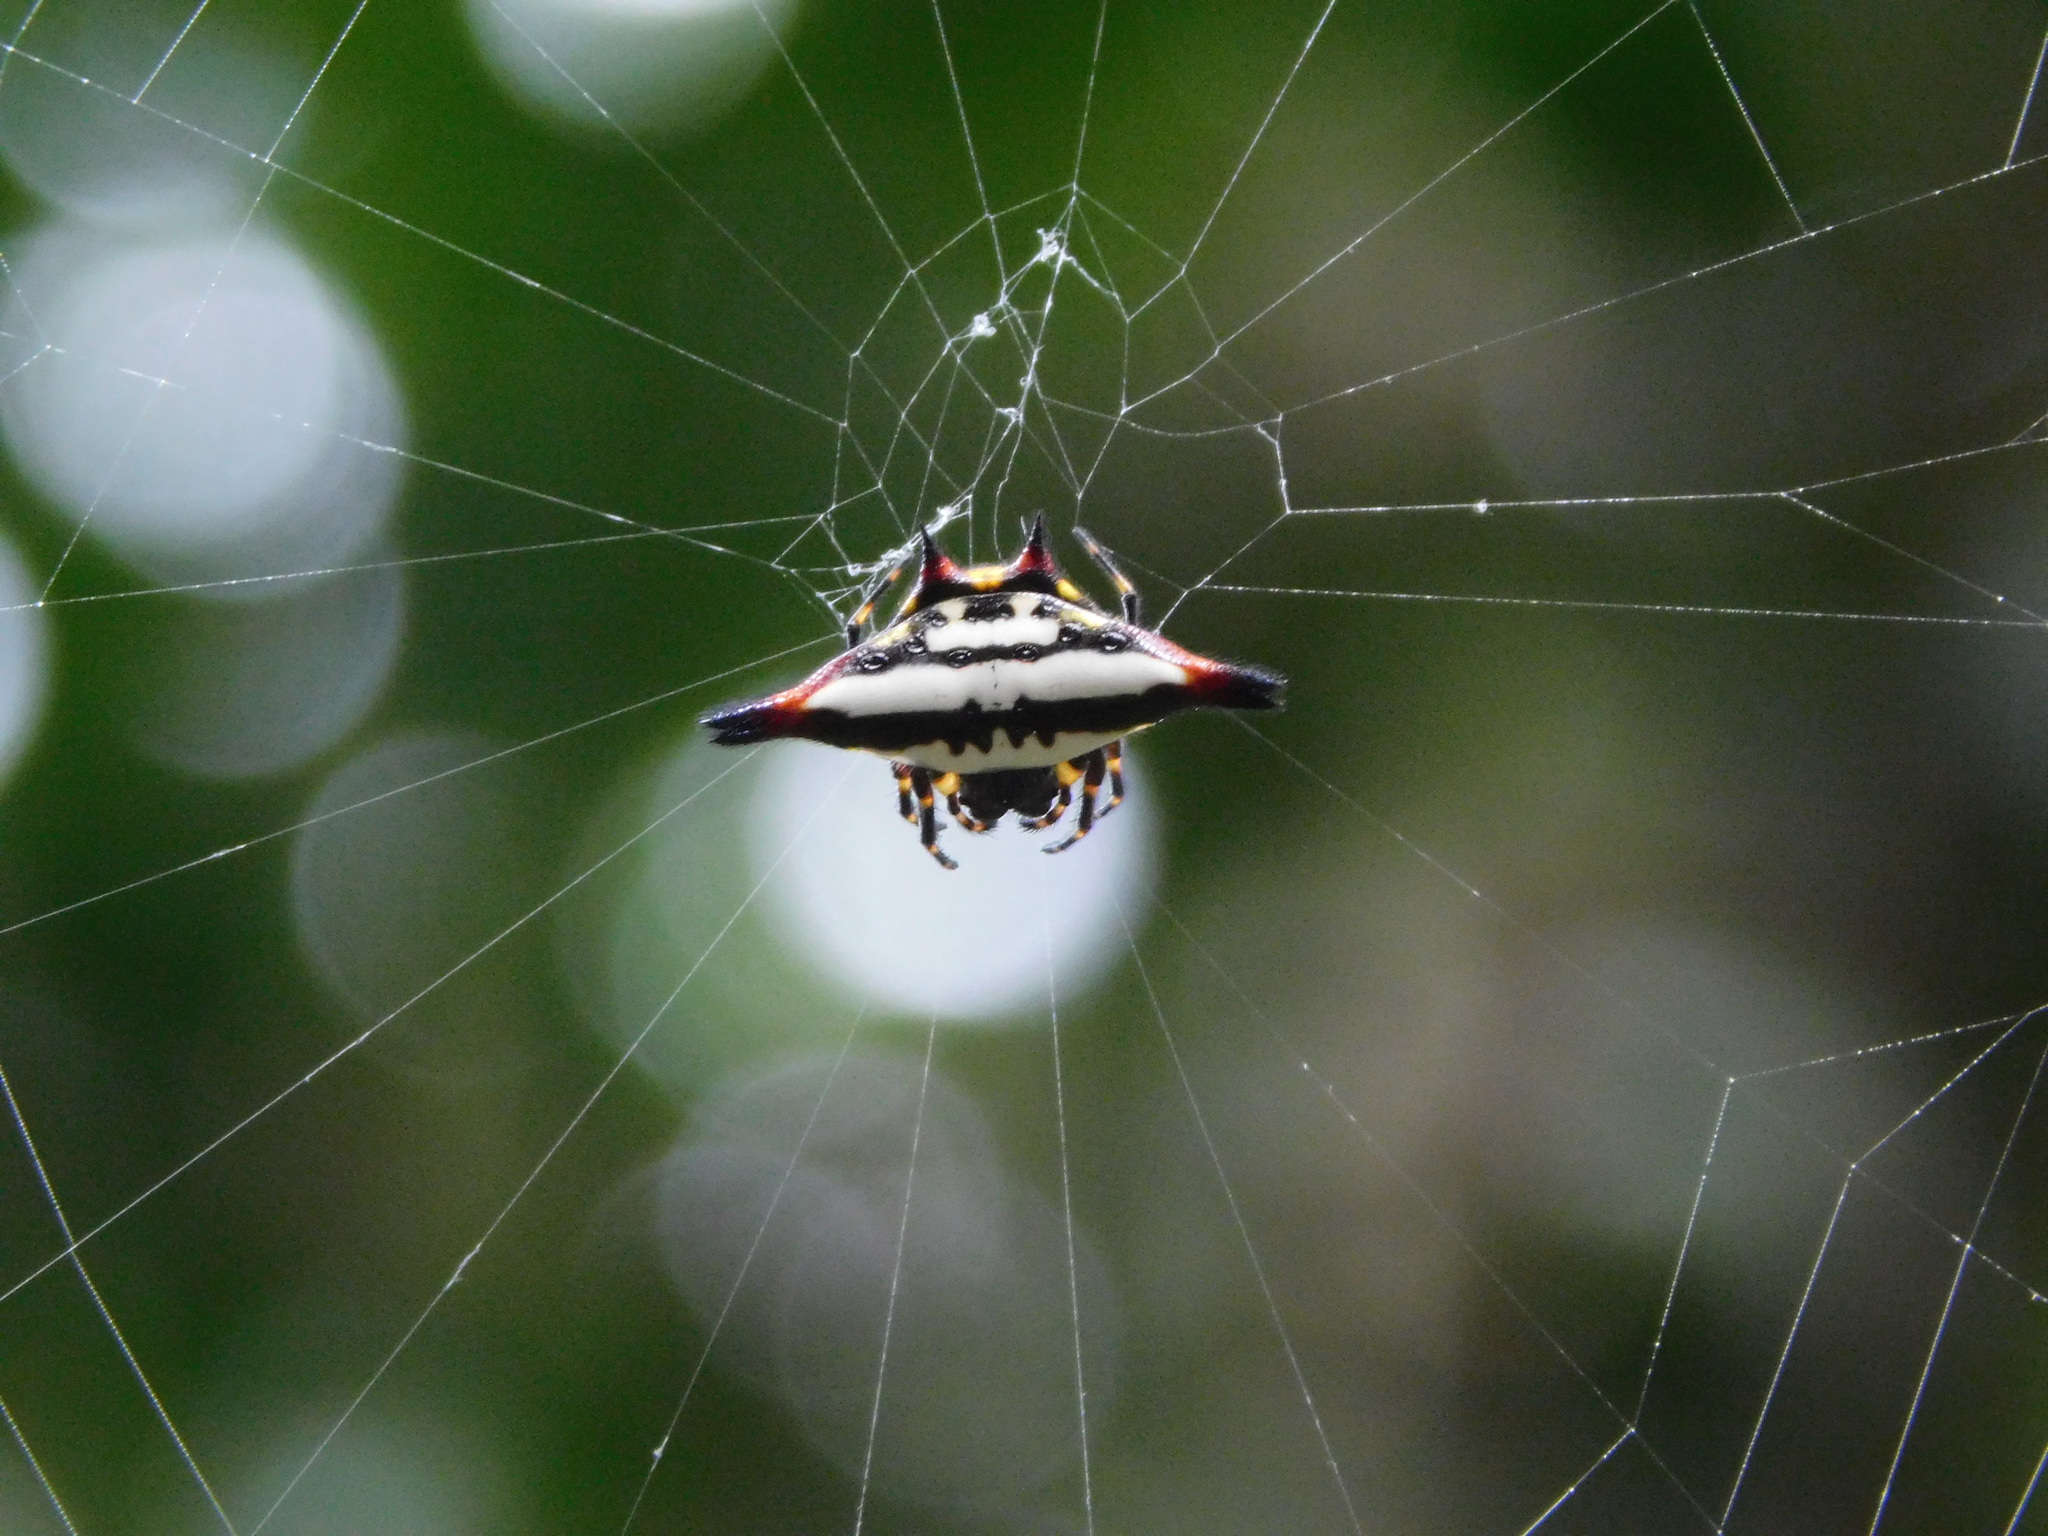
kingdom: Animalia
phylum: Arthropoda
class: Arachnida
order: Araneae
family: Araneidae
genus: Gasteracantha
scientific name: Gasteracantha geminata
